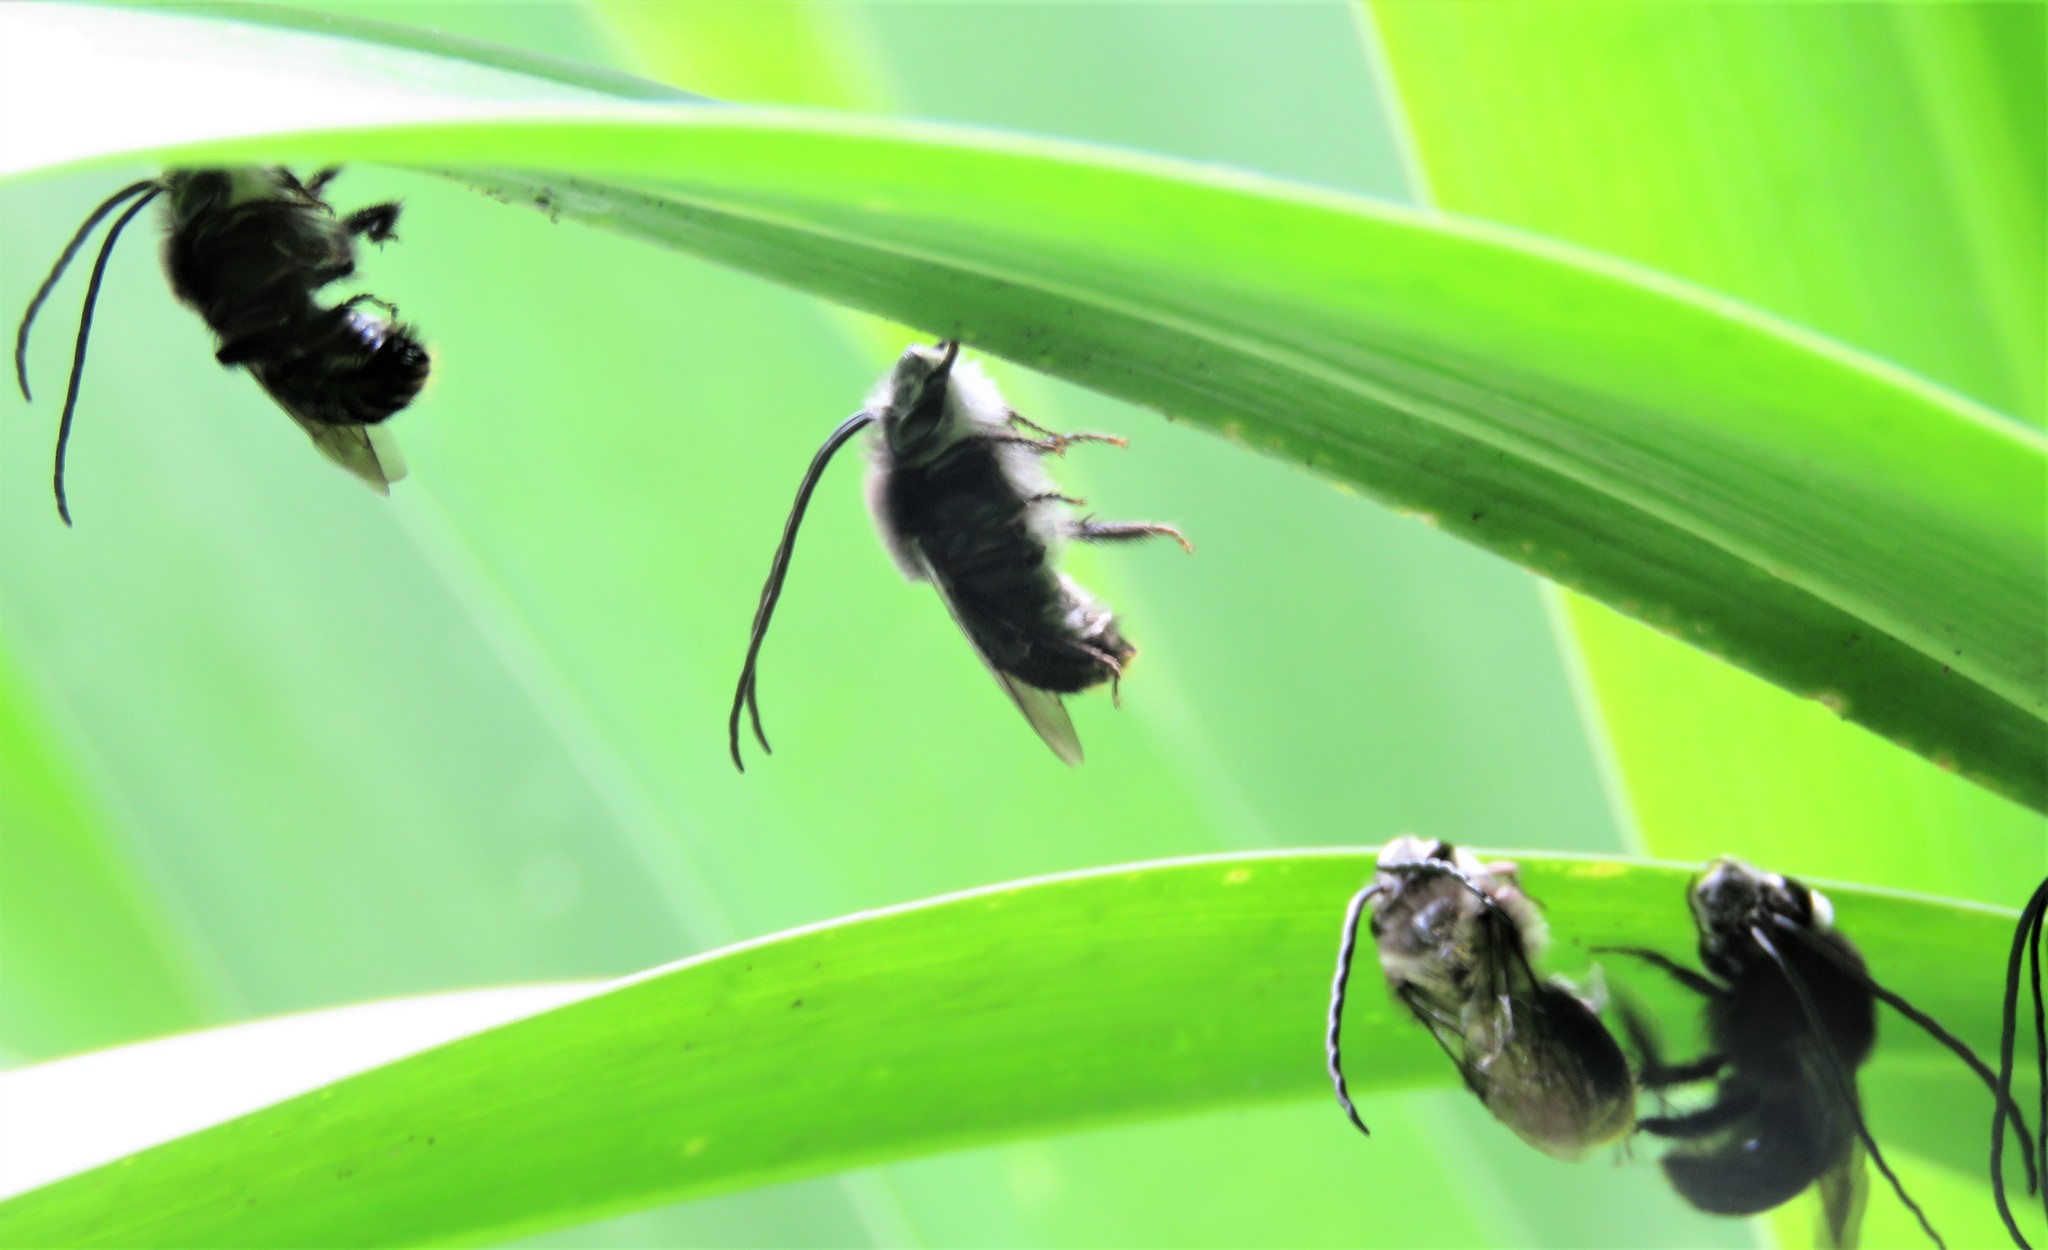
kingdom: Animalia
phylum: Arthropoda
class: Insecta
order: Hymenoptera
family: Apidae
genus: Thygater
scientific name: Thygater aethiops
